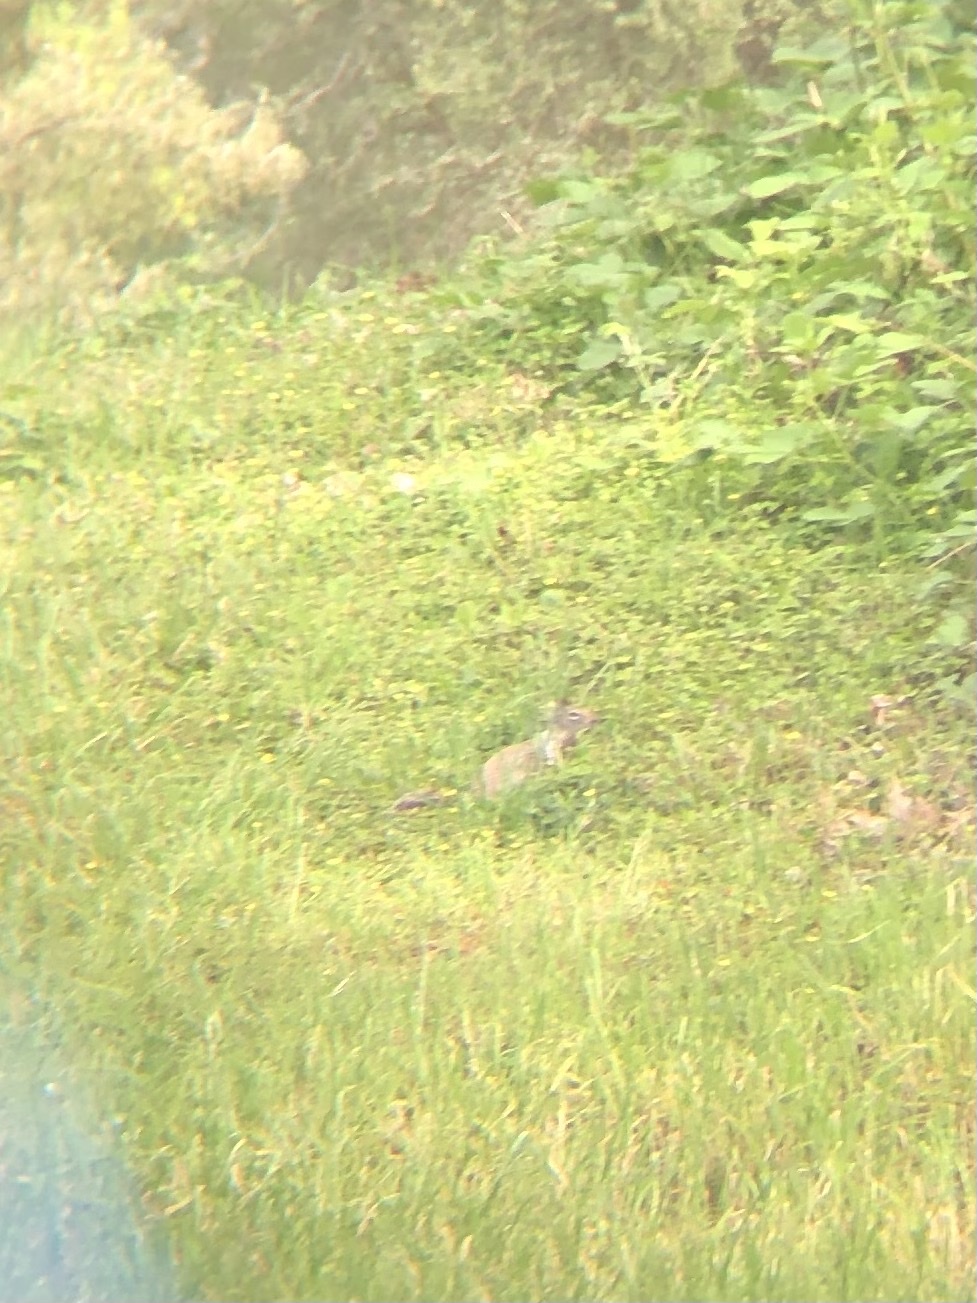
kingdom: Animalia
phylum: Chordata
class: Mammalia
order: Rodentia
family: Sciuridae
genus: Otospermophilus
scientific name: Otospermophilus beecheyi
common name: California ground squirrel
